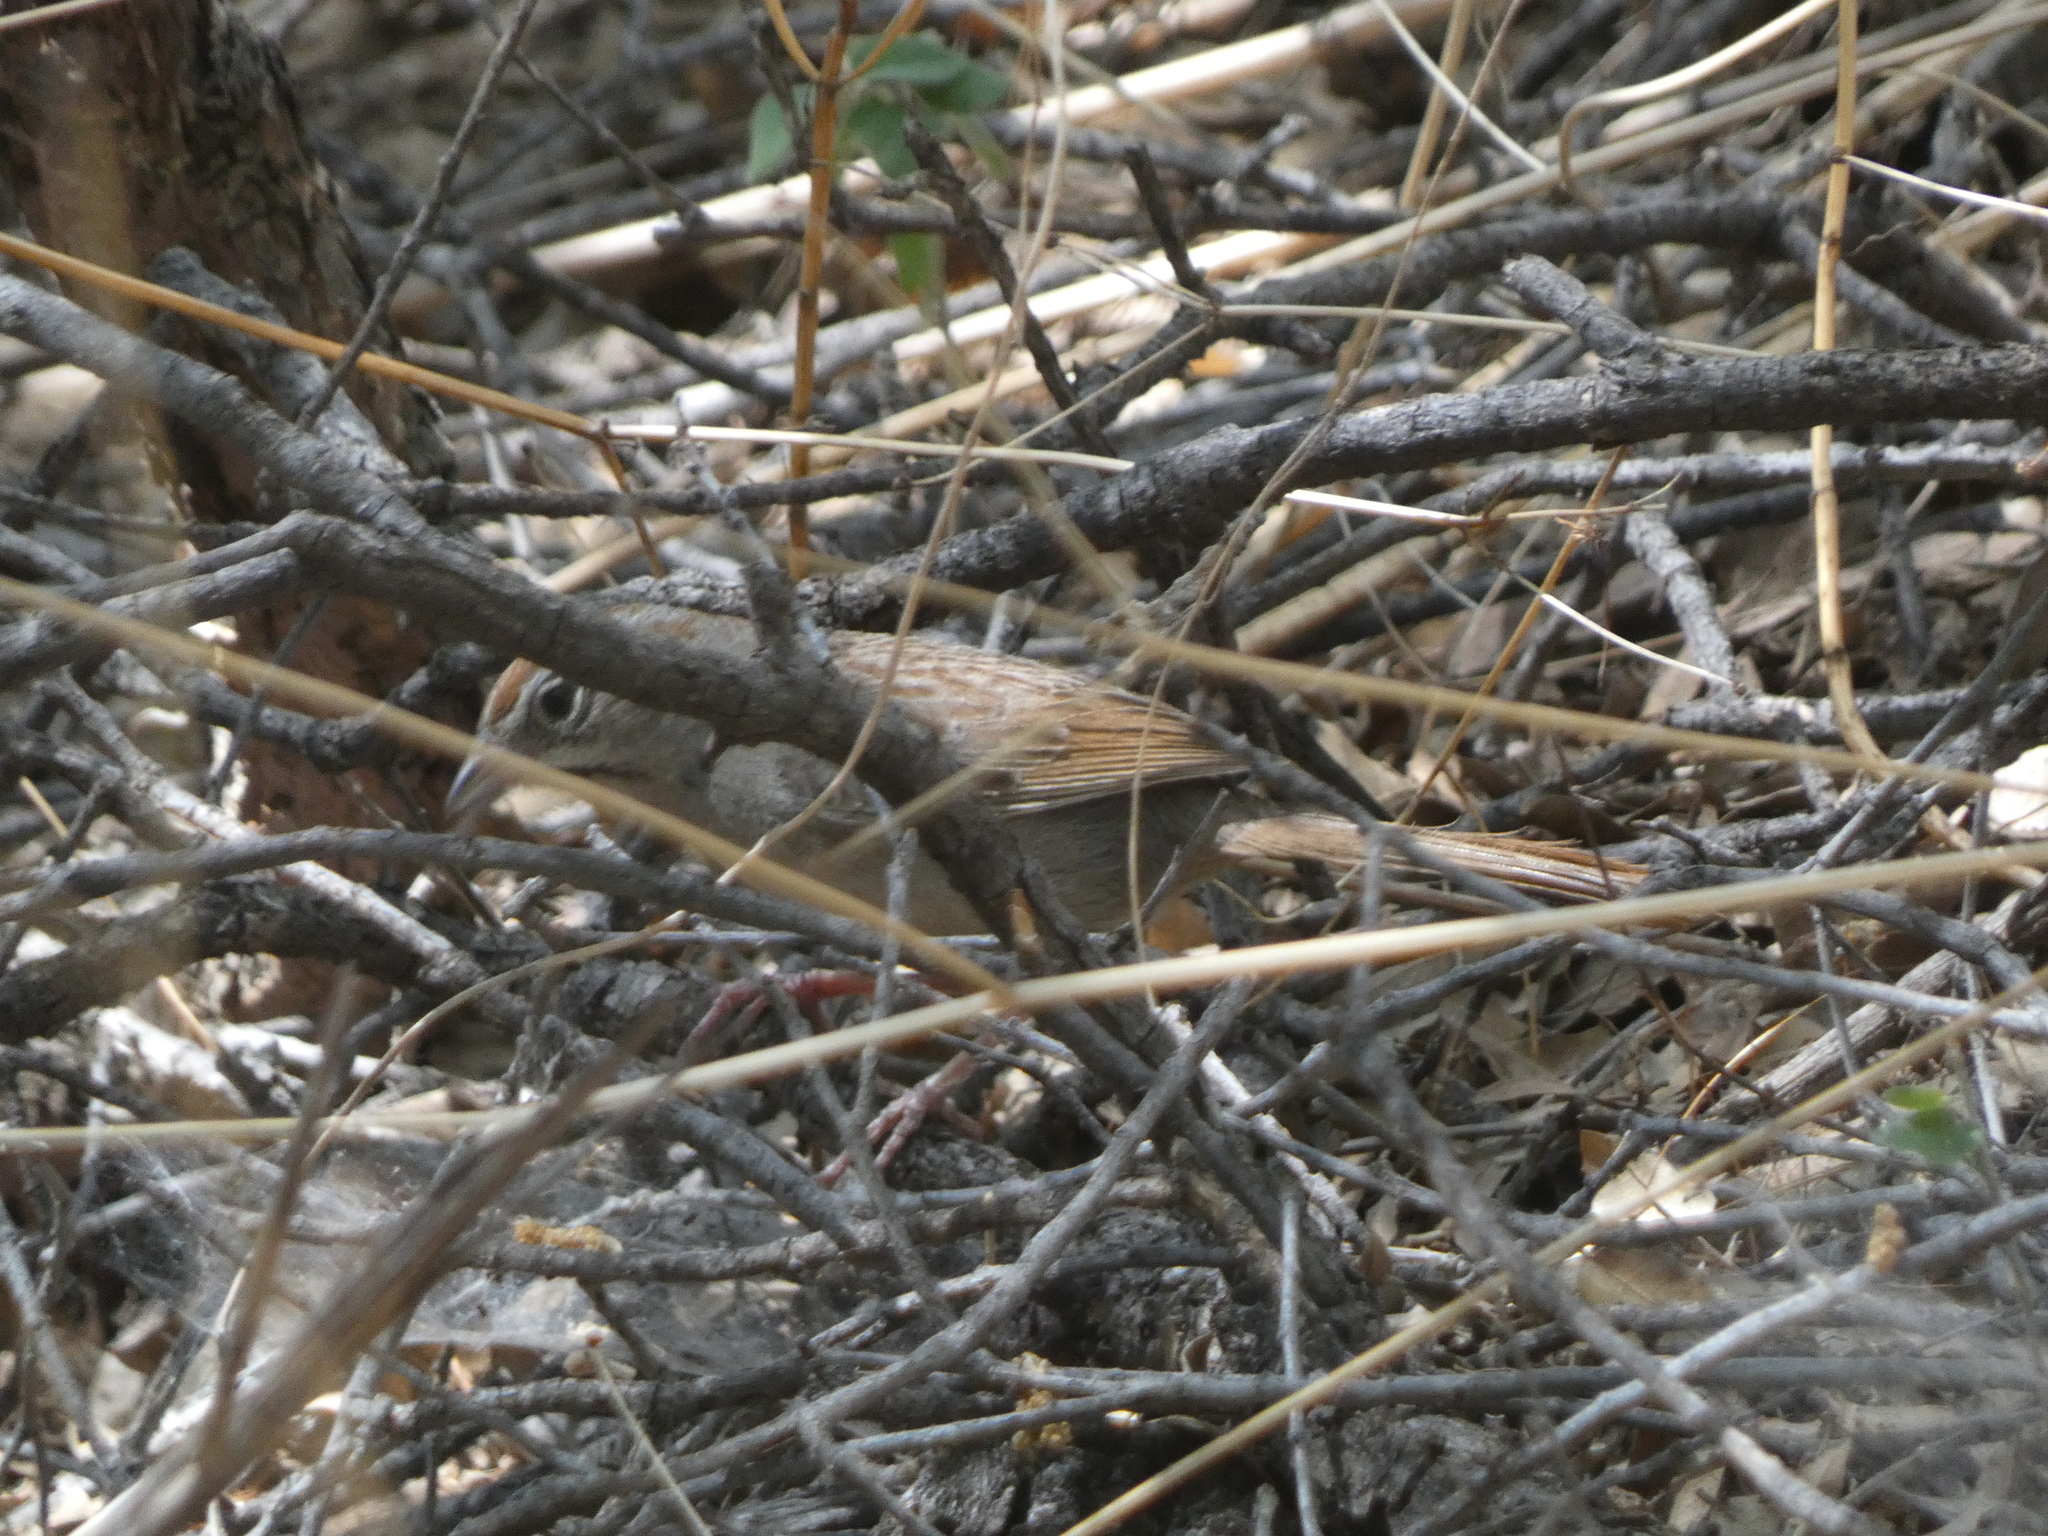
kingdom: Animalia
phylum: Chordata
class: Aves
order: Passeriformes
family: Passerellidae
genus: Aimophila
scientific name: Aimophila ruficeps
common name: Rufous-crowned sparrow
